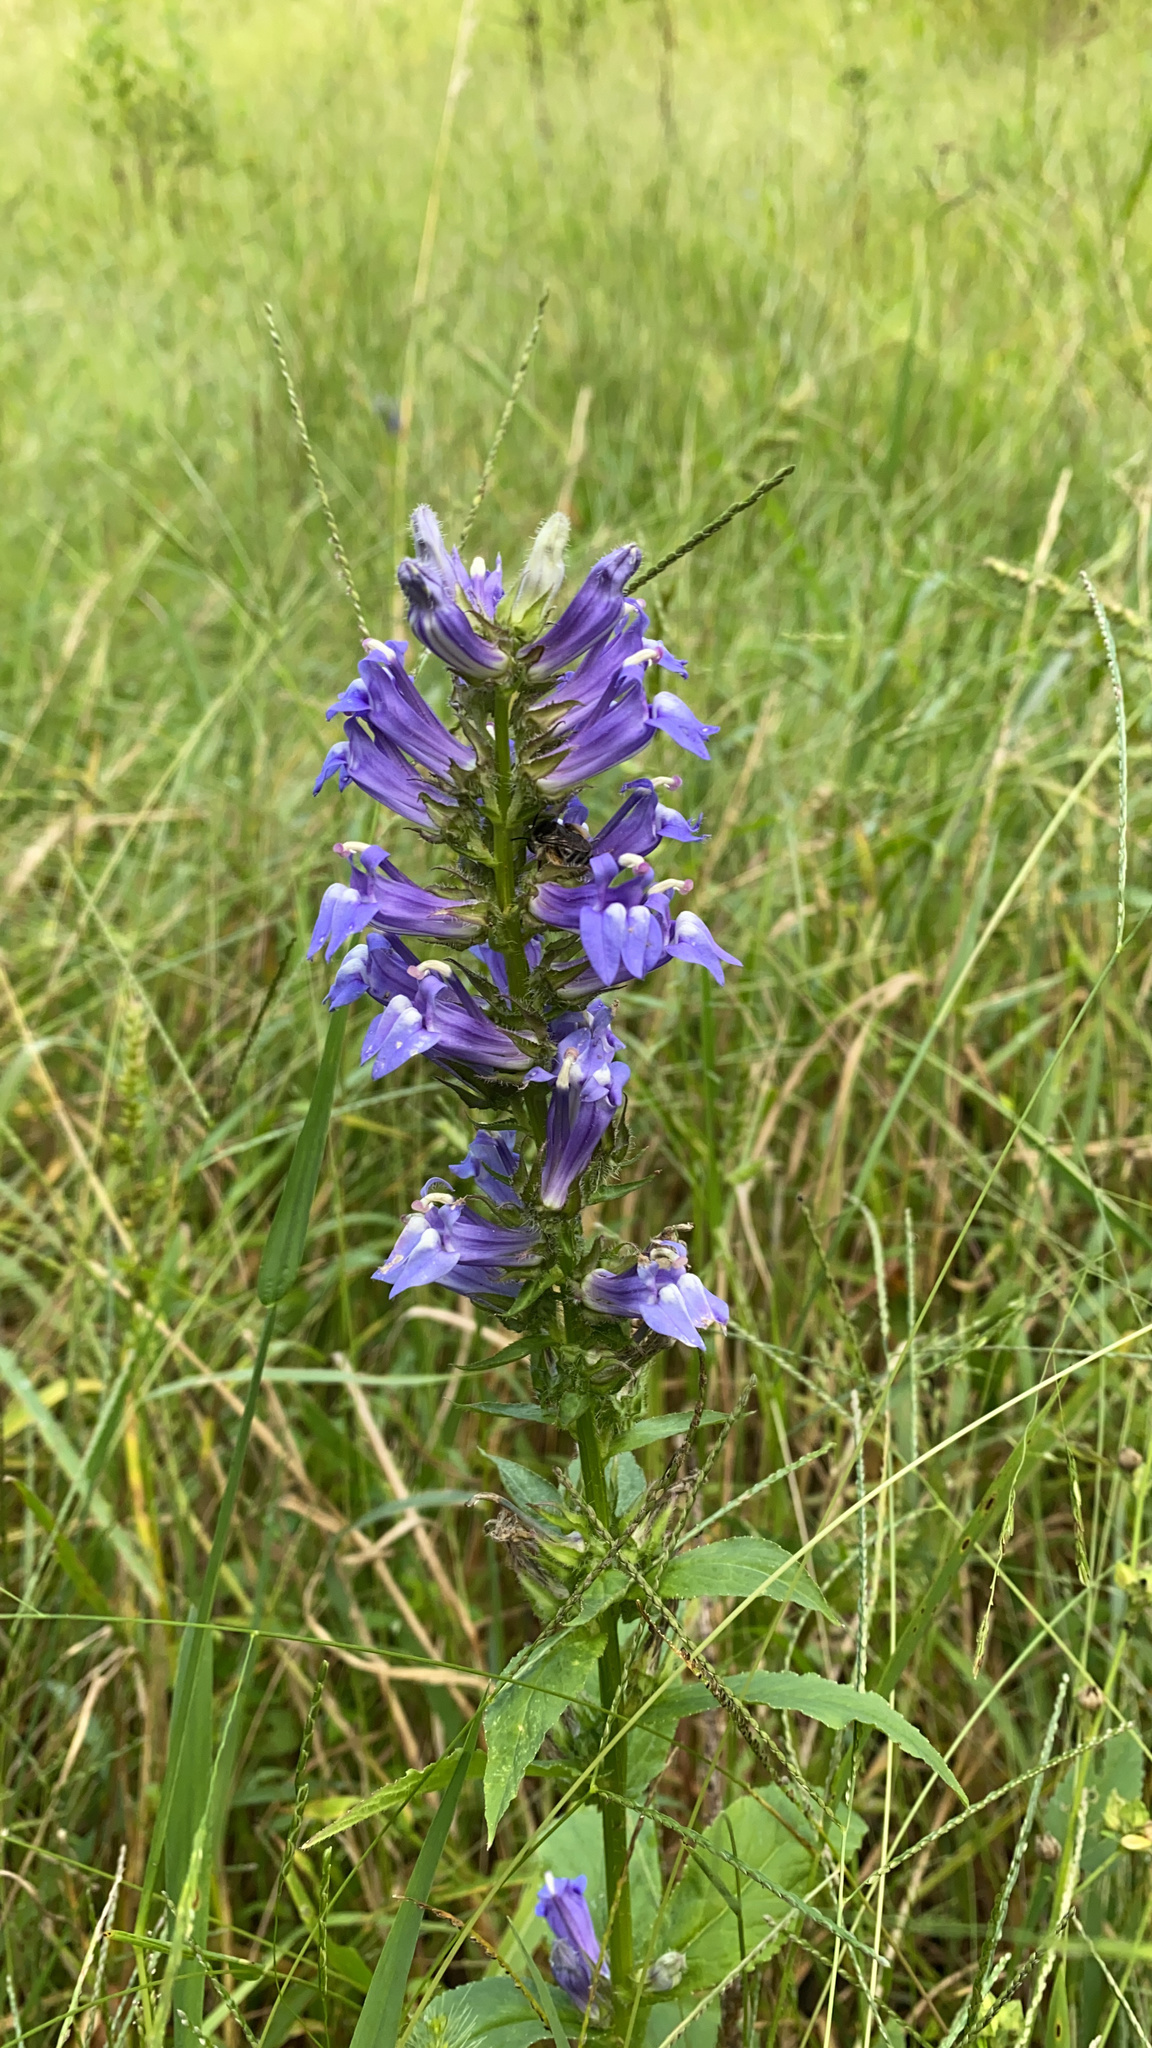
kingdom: Plantae
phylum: Tracheophyta
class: Magnoliopsida
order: Asterales
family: Campanulaceae
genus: Lobelia
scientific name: Lobelia siphilitica
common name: Great lobelia
